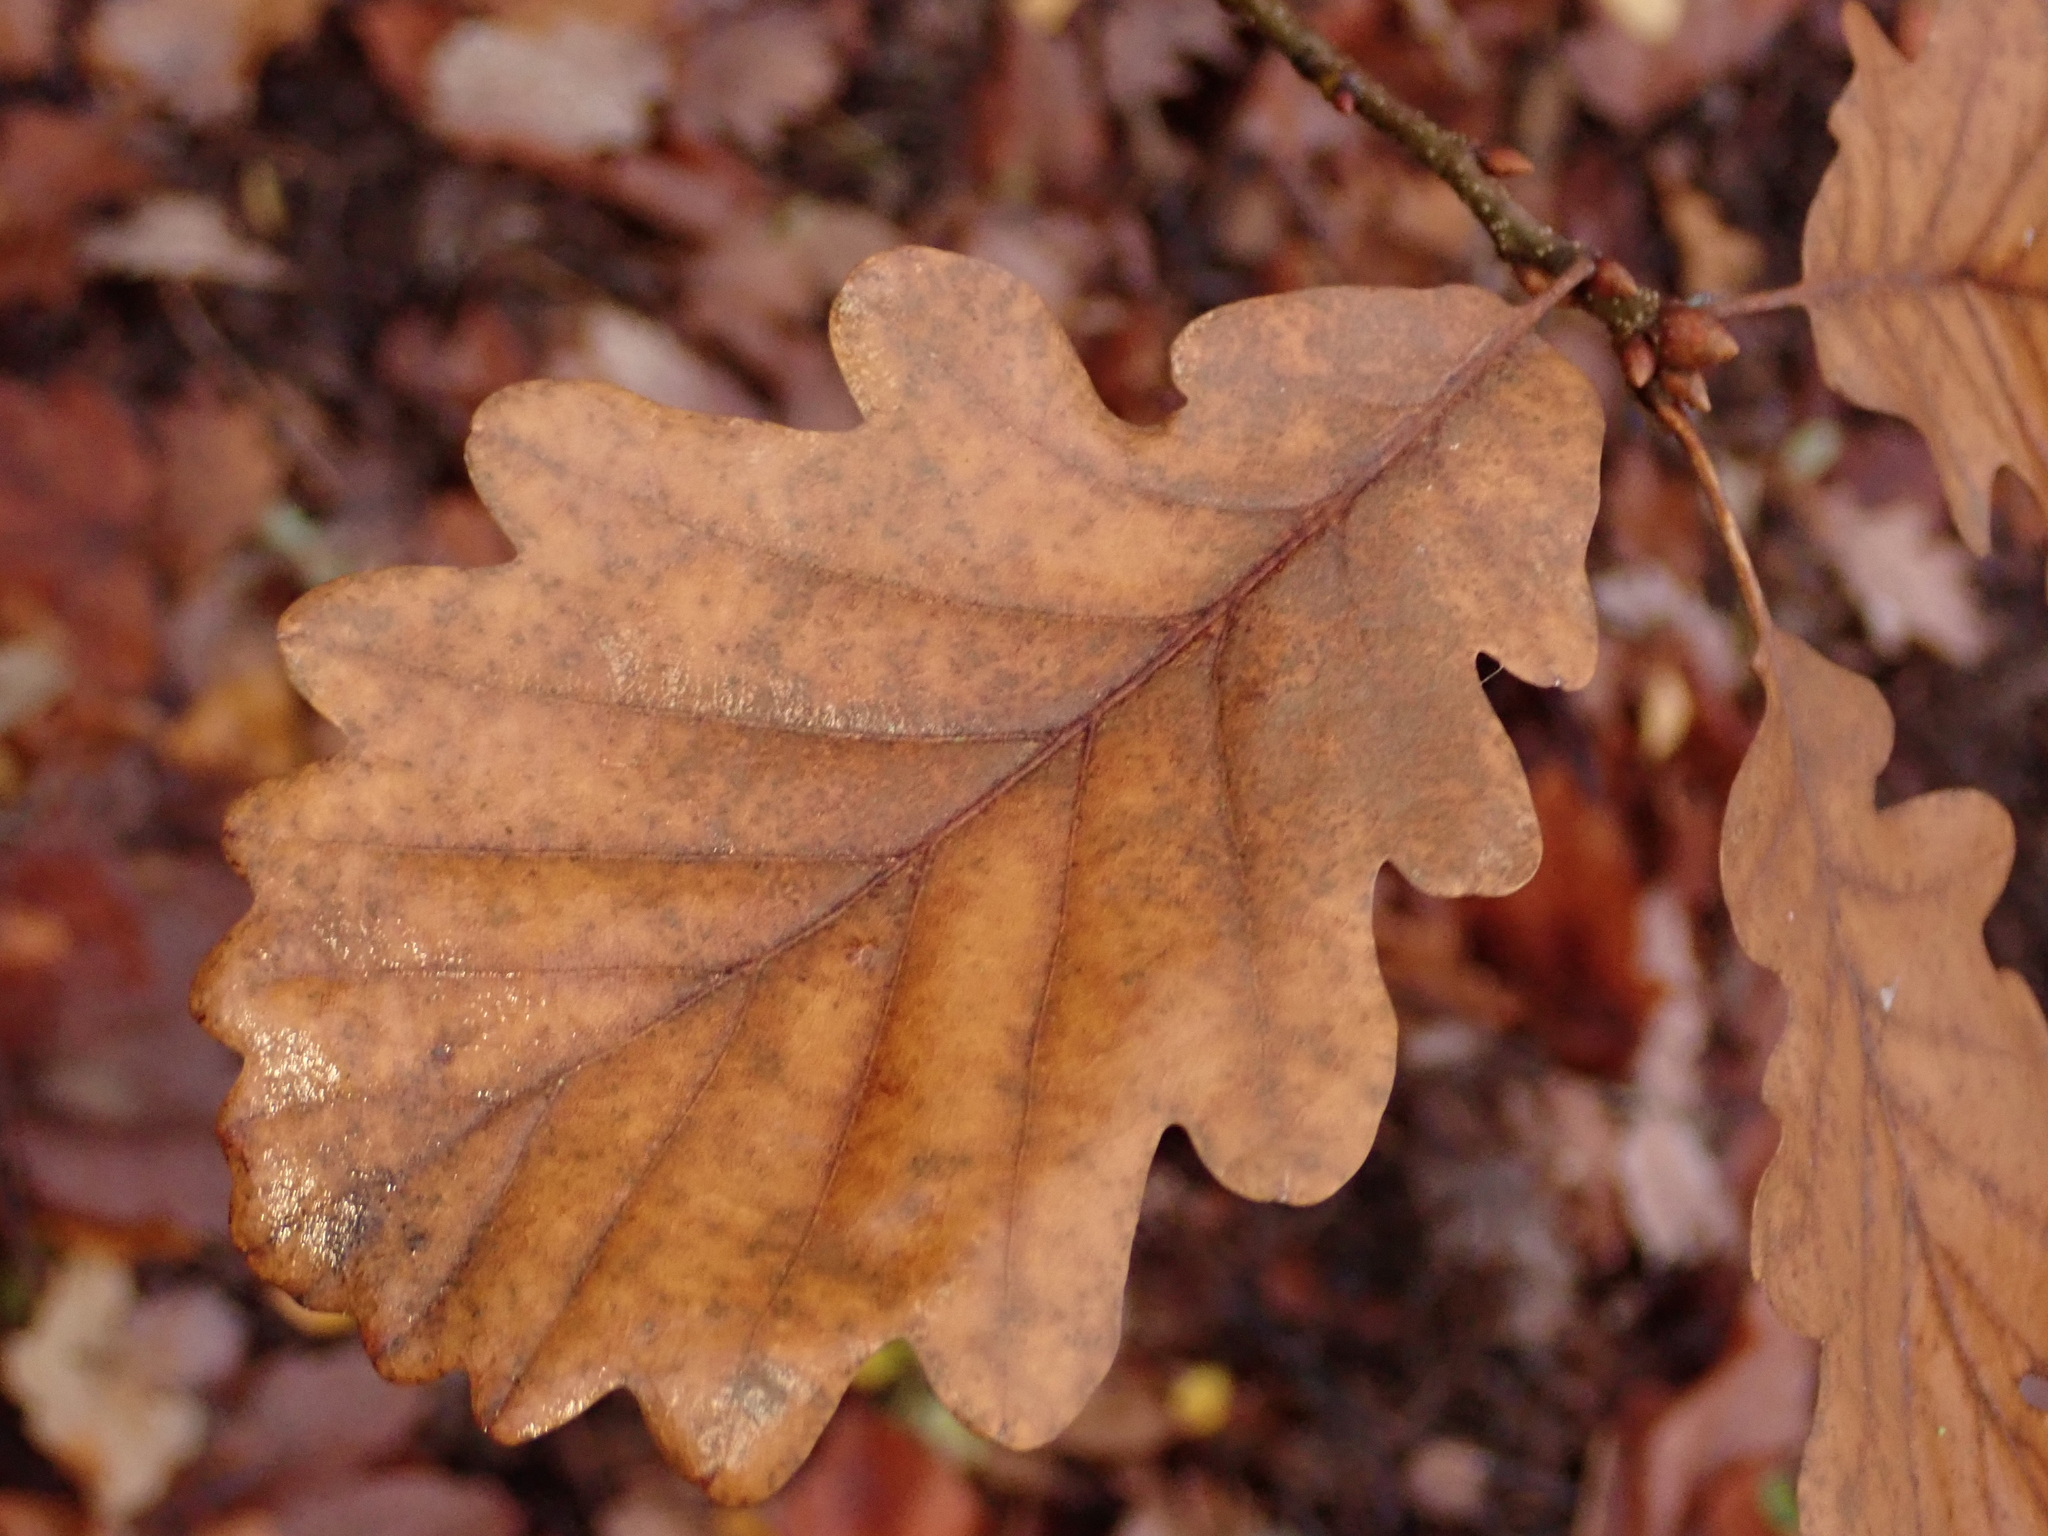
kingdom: Plantae
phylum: Tracheophyta
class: Magnoliopsida
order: Fagales
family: Fagaceae
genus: Quercus
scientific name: Quercus petraea
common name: Sessile oak
